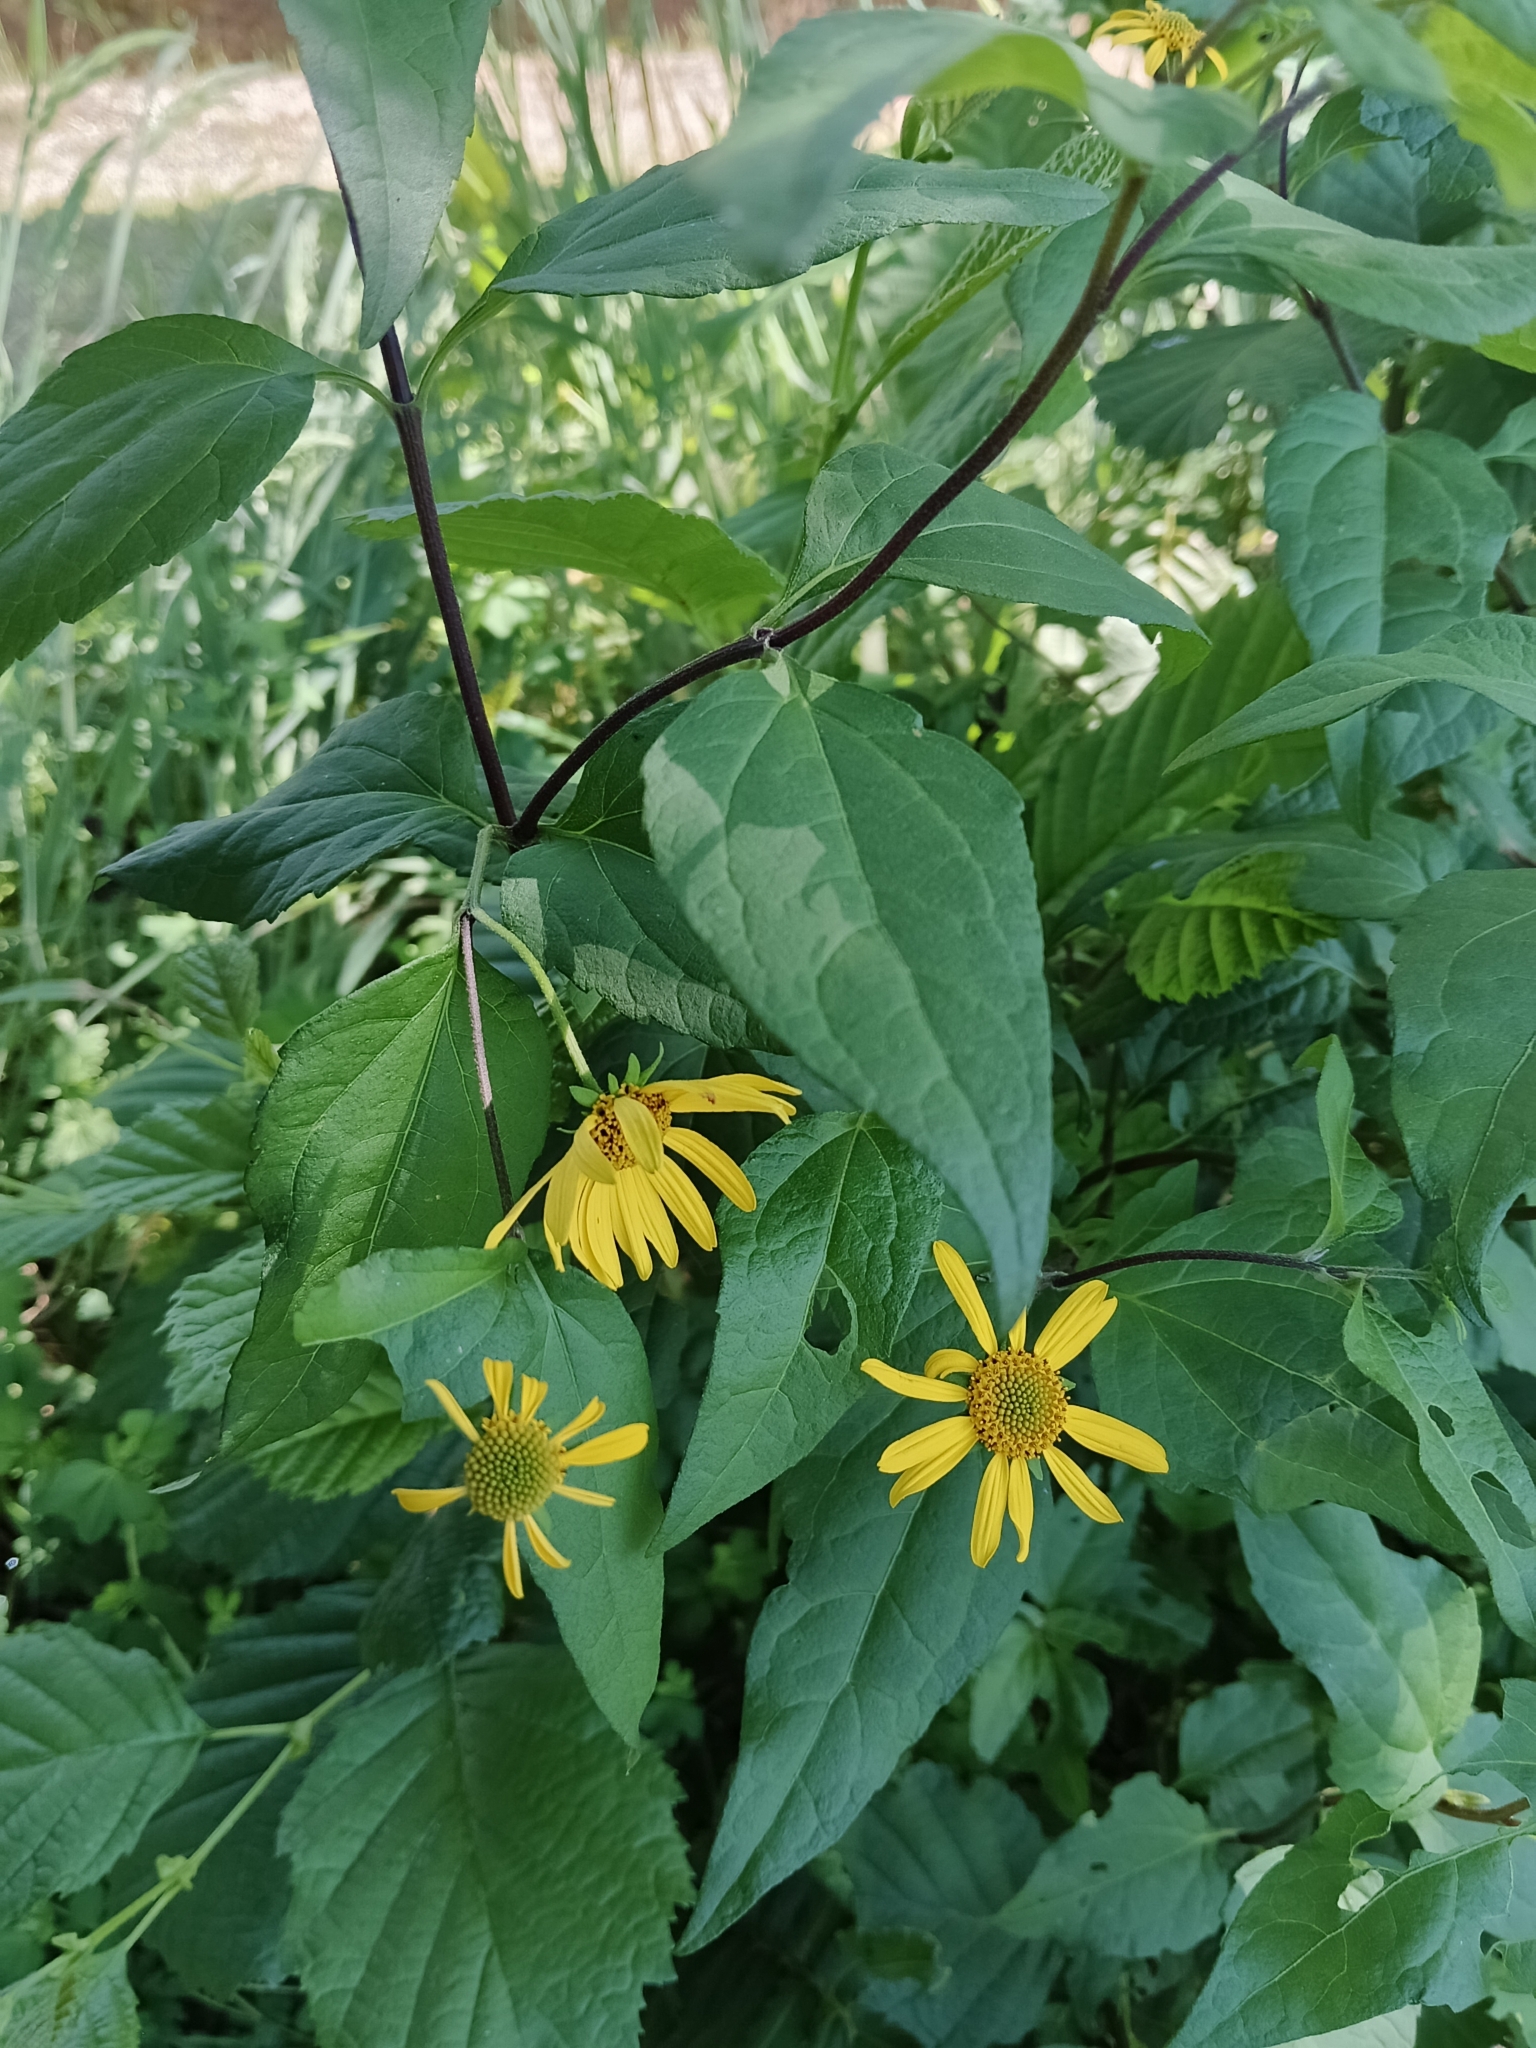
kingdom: Plantae
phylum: Tracheophyta
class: Magnoliopsida
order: Asterales
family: Asteraceae
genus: Leptocarpha
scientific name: Leptocarpha rivularis
